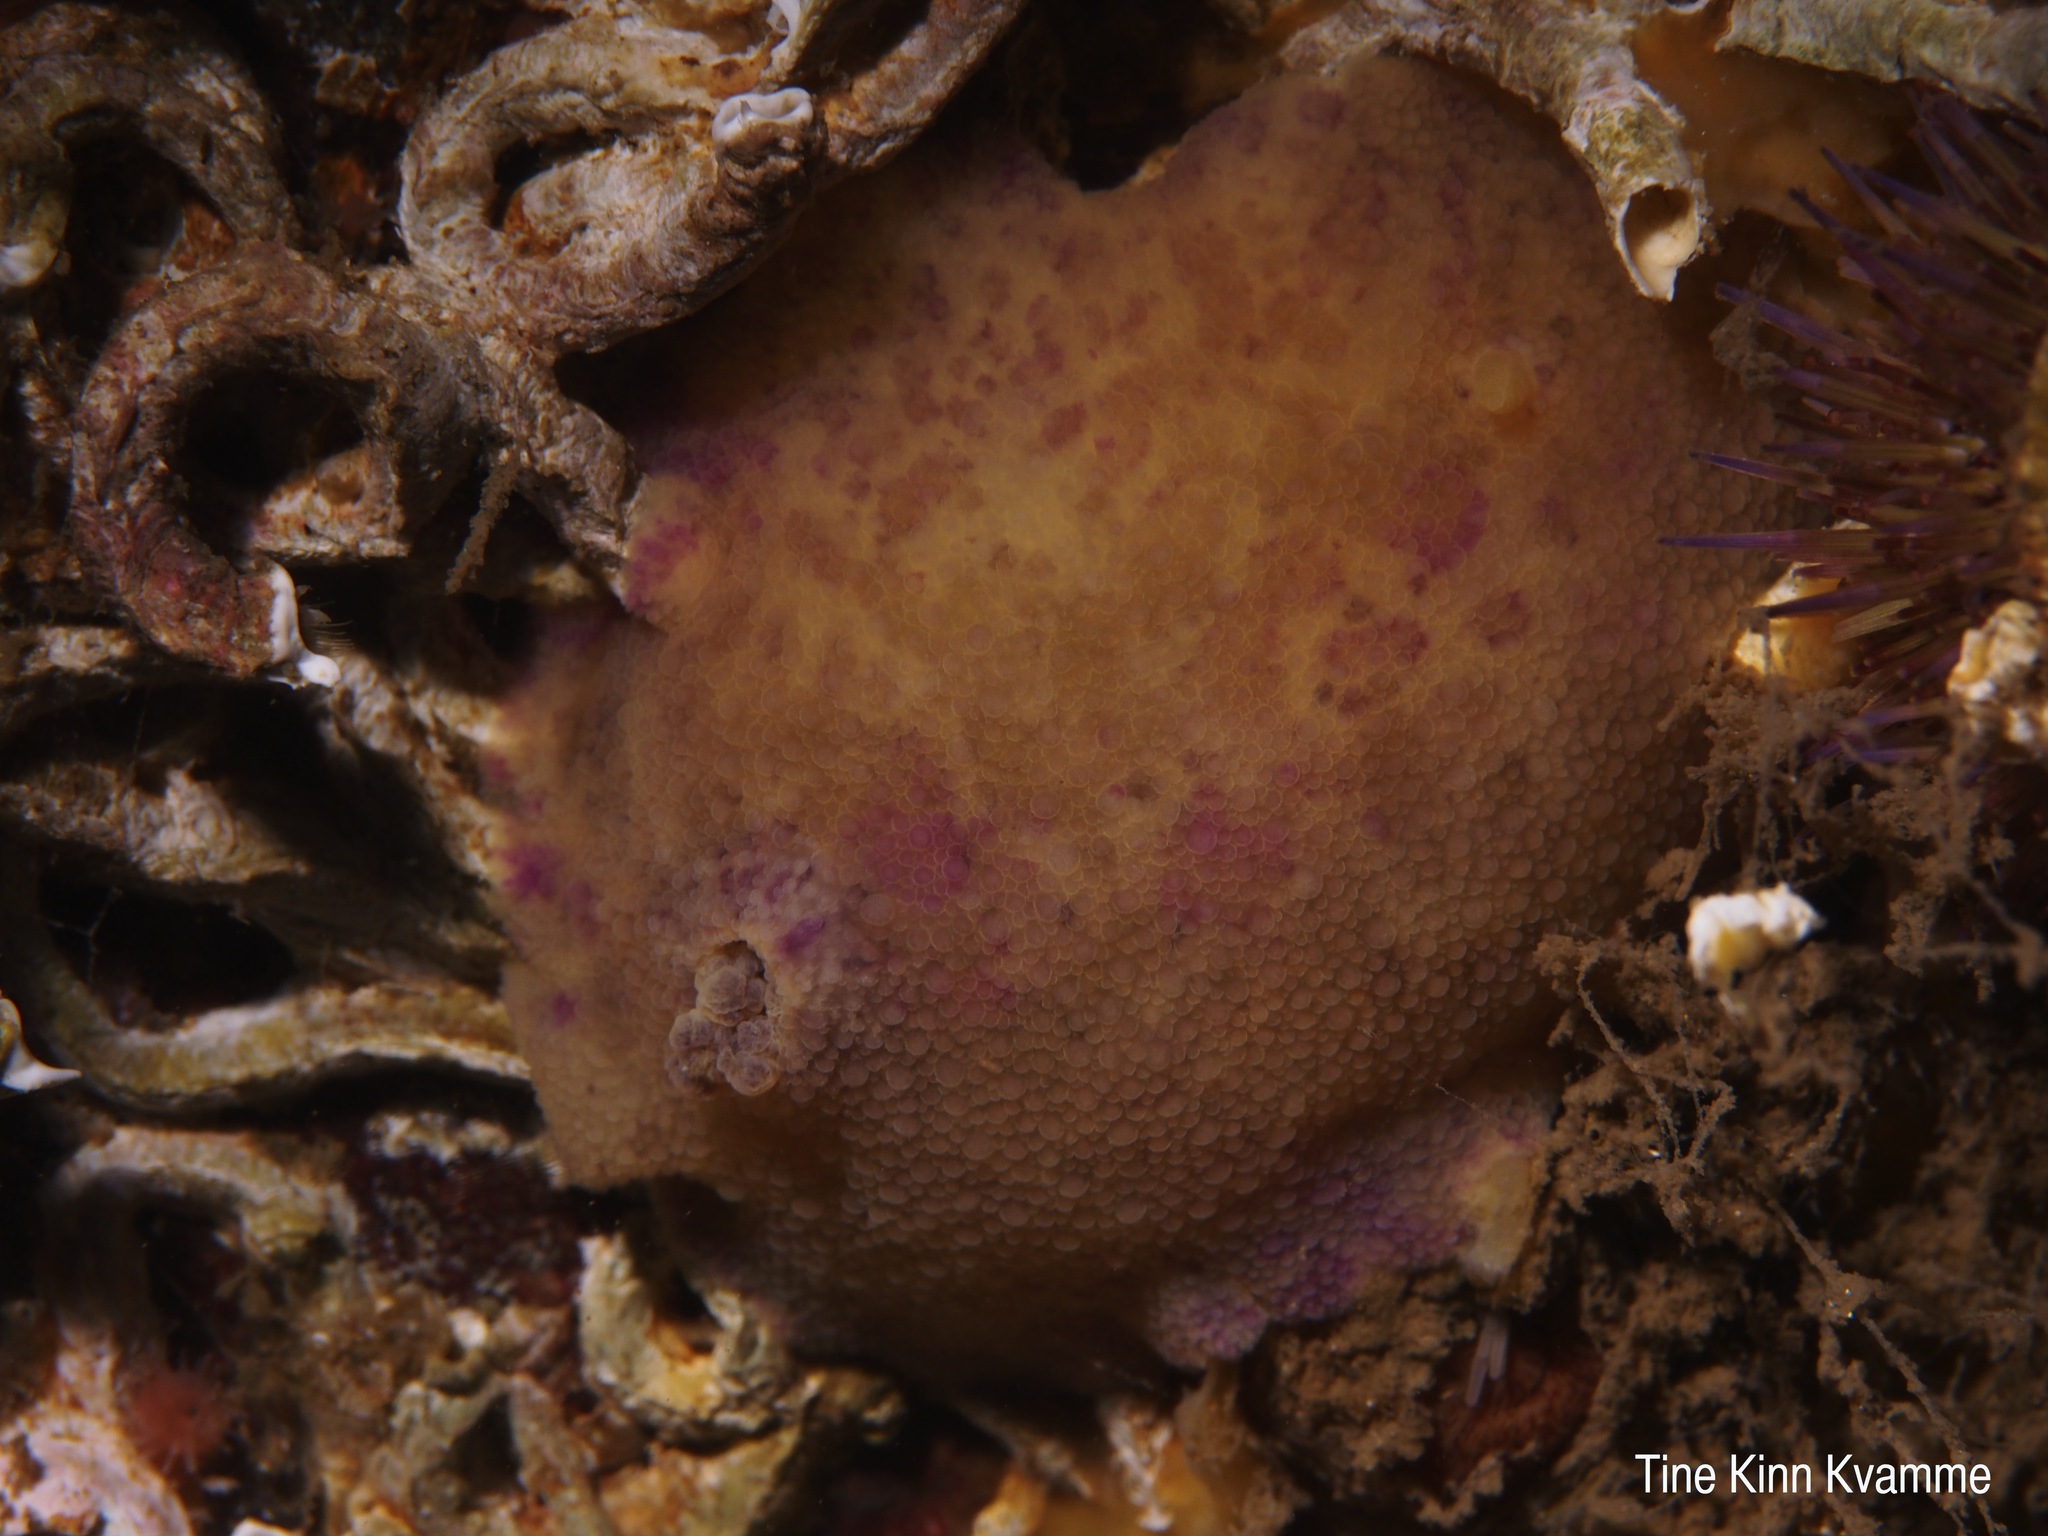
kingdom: Animalia
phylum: Mollusca
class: Gastropoda
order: Nudibranchia
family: Dorididae
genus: Doris
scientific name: Doris pseudoargus
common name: Sea lemon
